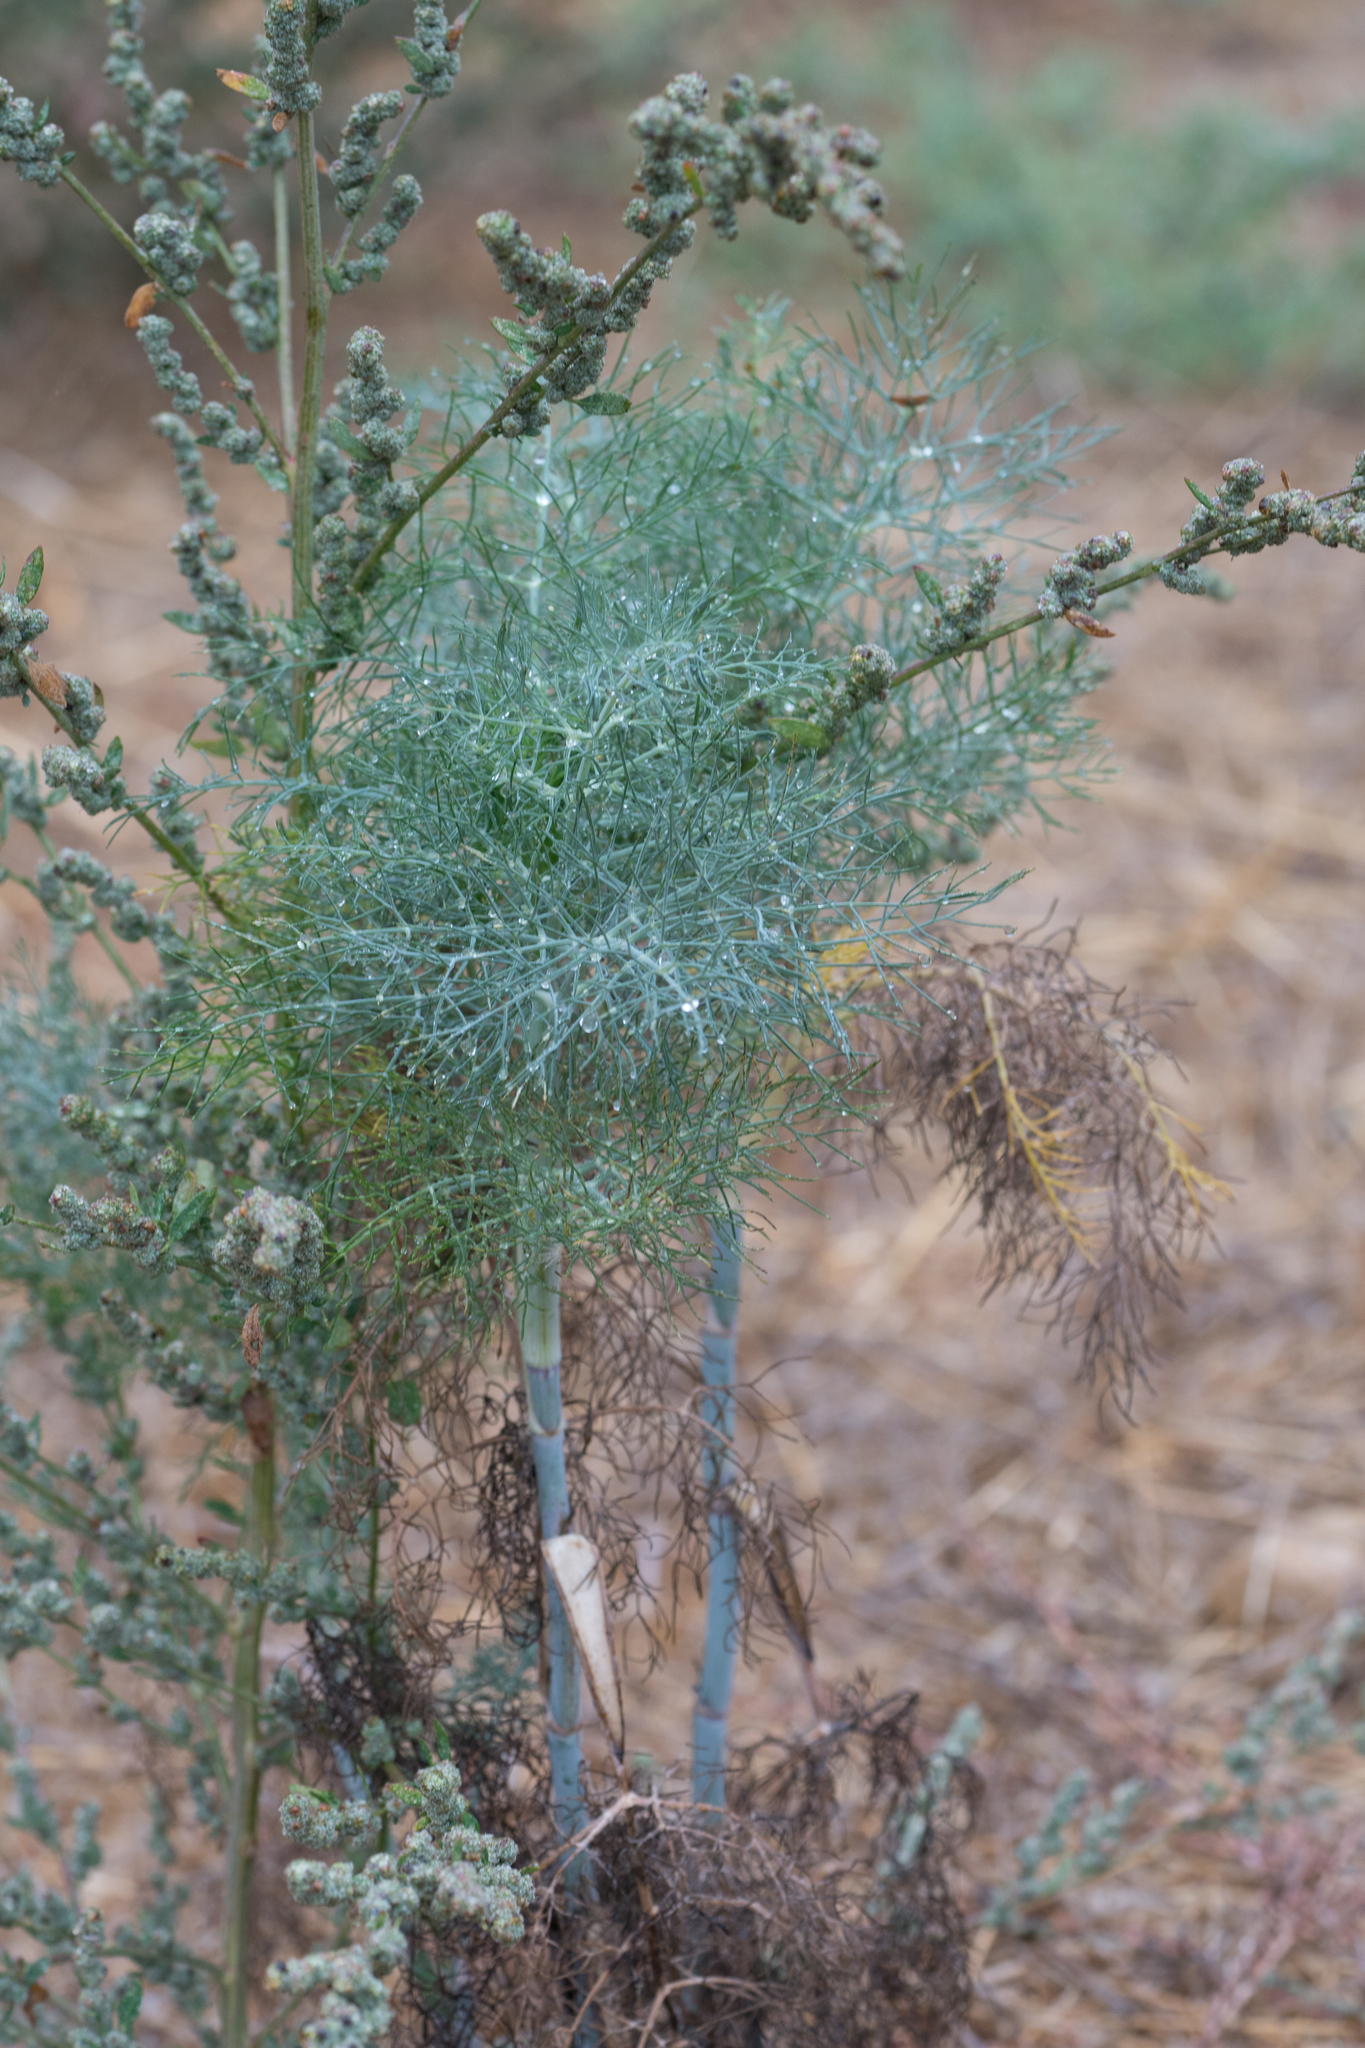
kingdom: Plantae
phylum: Tracheophyta
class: Magnoliopsida
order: Apiales
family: Apiaceae
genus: Foeniculum
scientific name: Foeniculum vulgare
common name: Fennel
